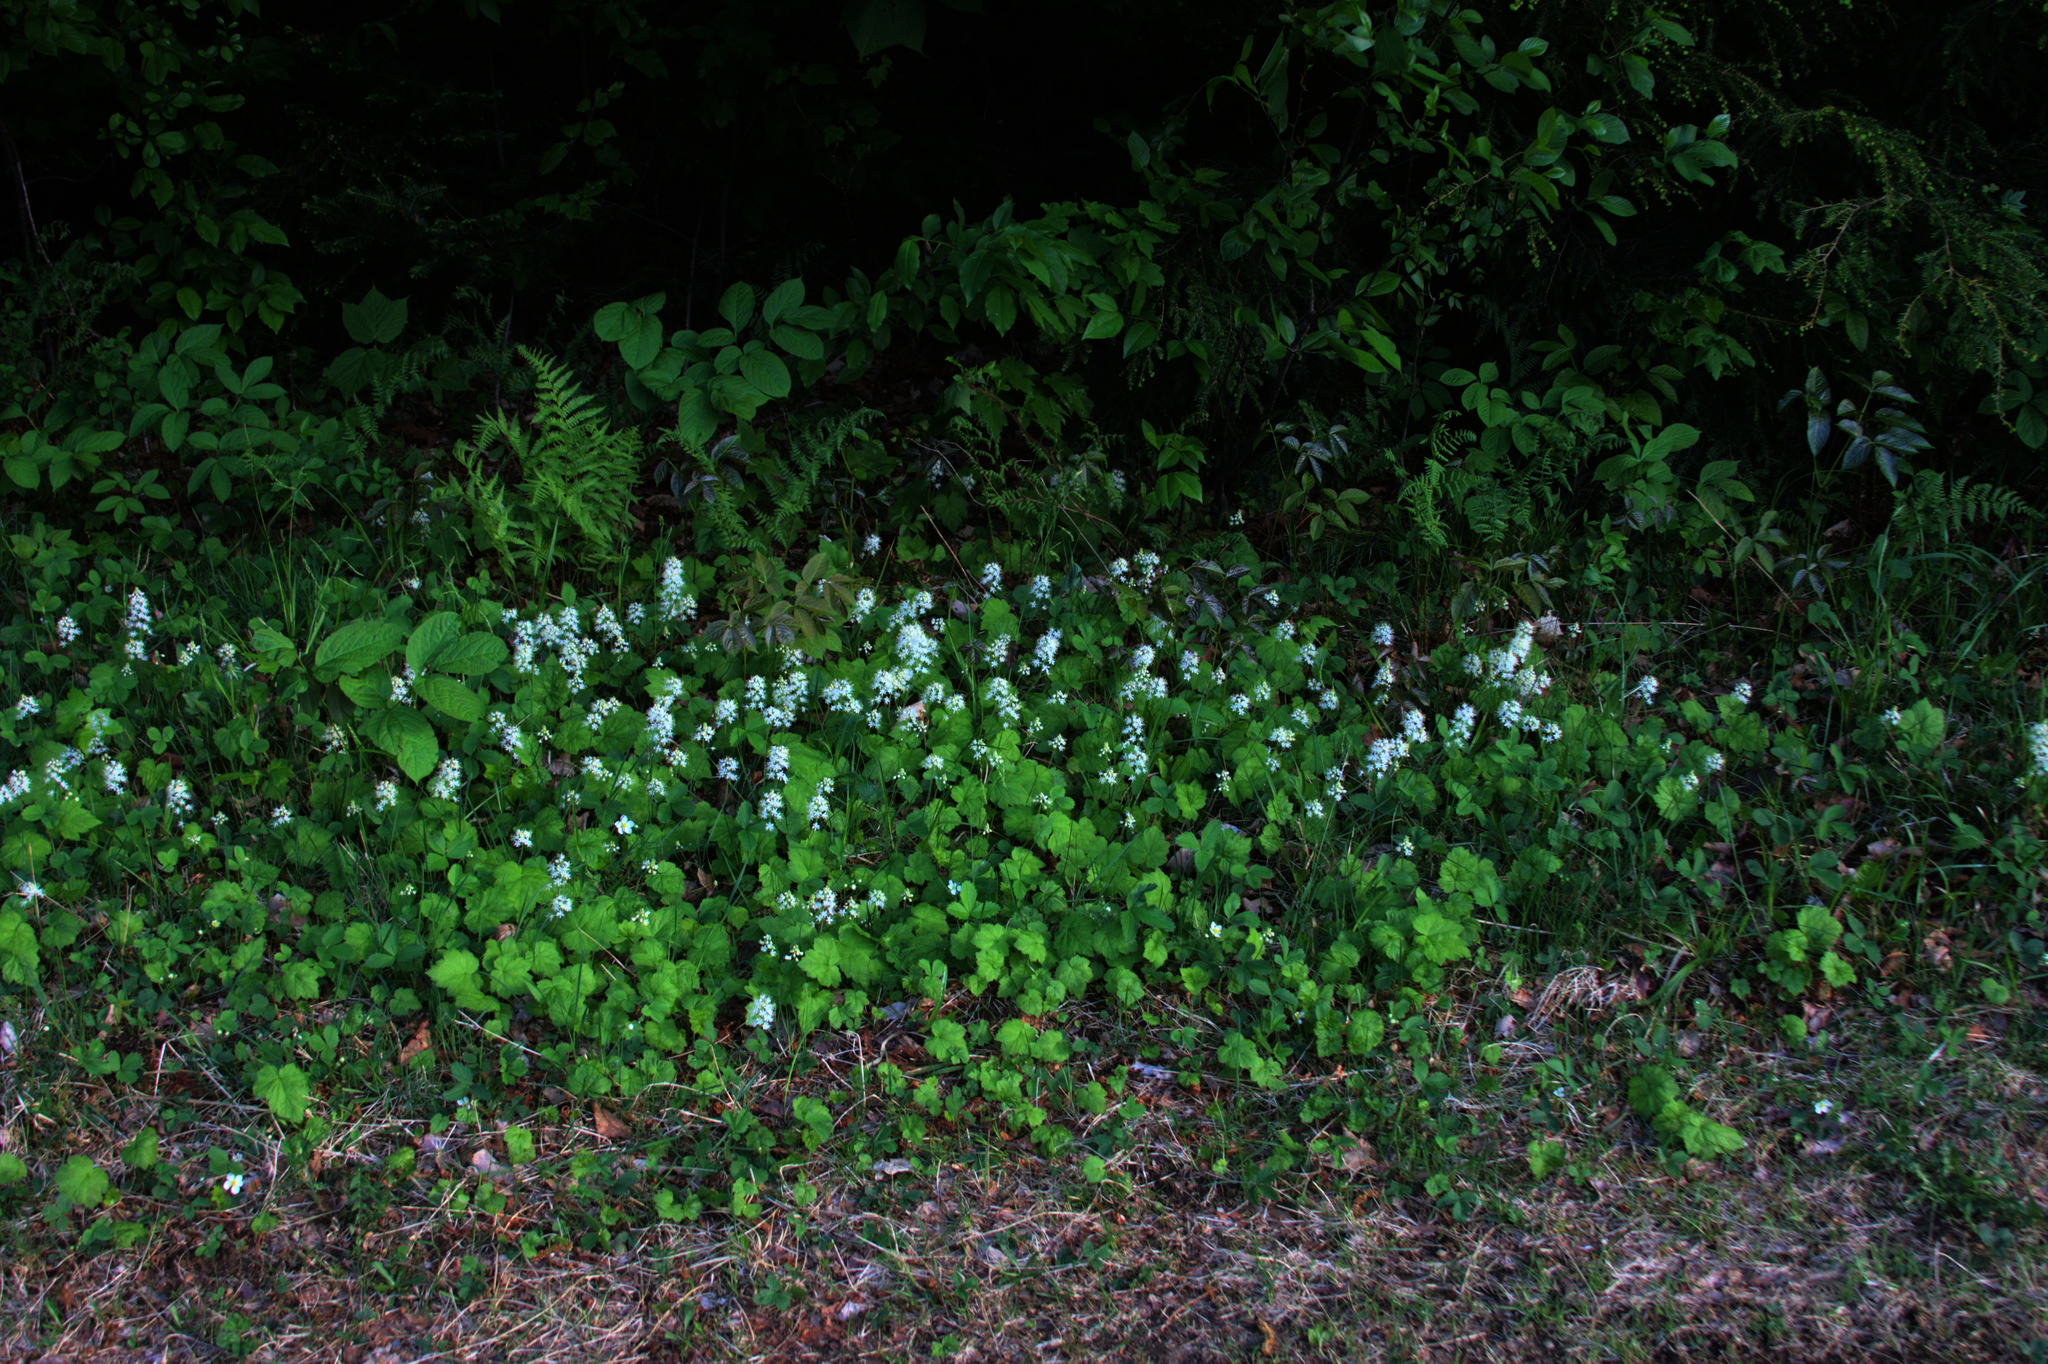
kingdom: Plantae
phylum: Tracheophyta
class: Magnoliopsida
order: Saxifragales
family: Saxifragaceae
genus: Tiarella
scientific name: Tiarella stolonifera
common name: Stoloniferous foamflower
